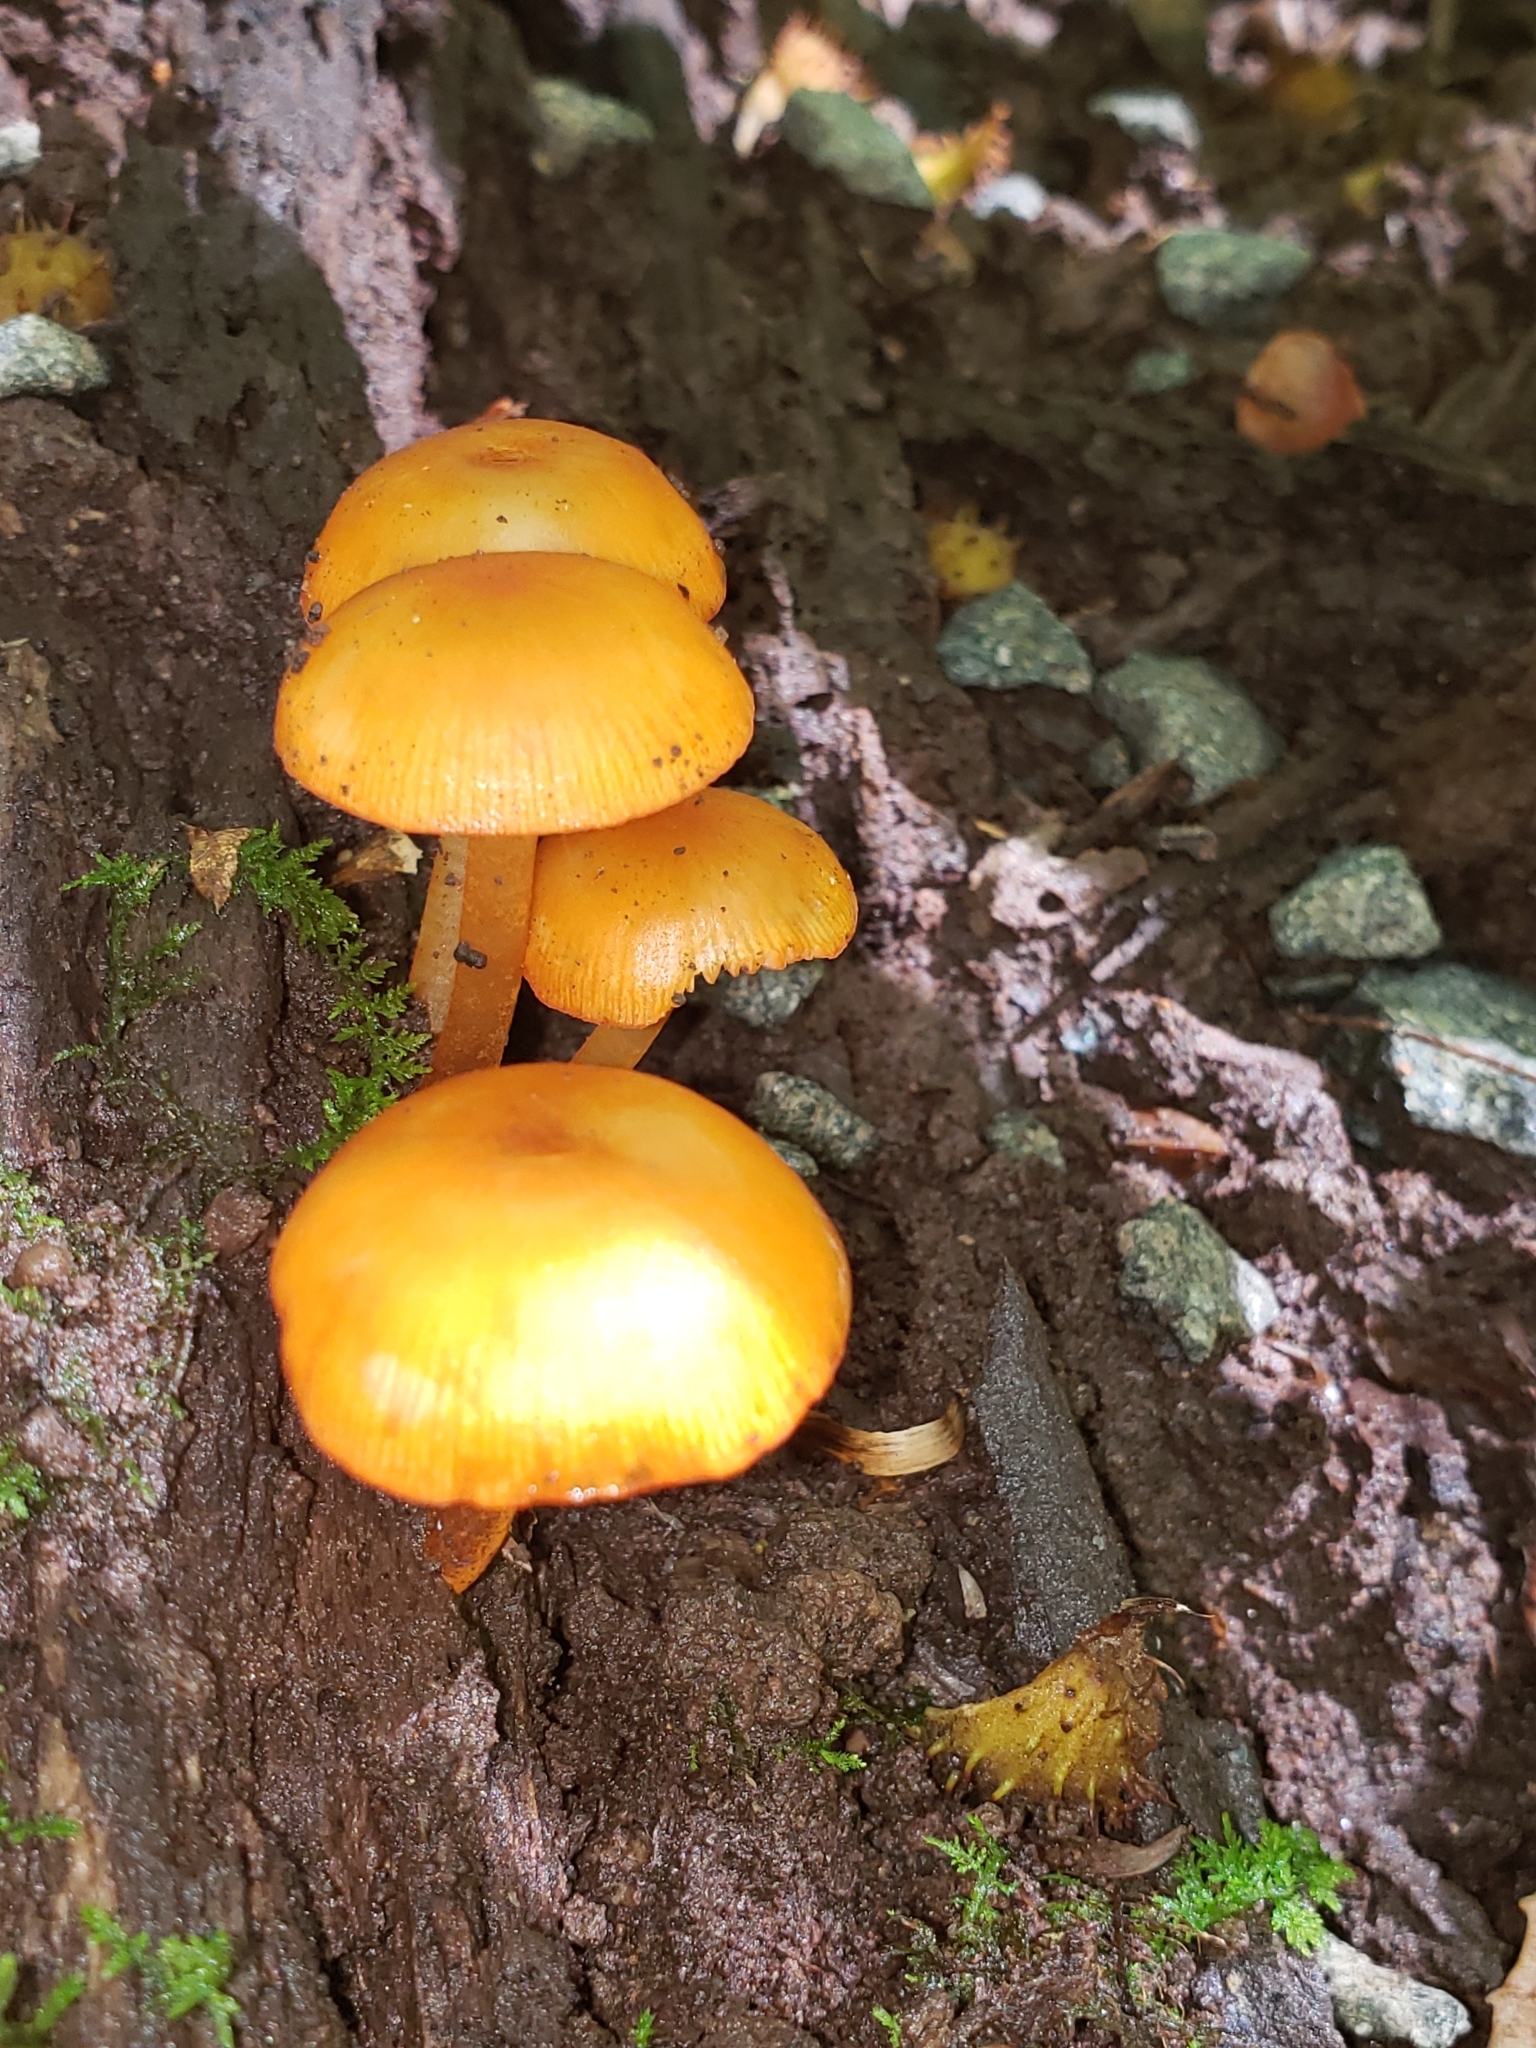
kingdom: Fungi
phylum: Basidiomycota
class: Agaricomycetes
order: Agaricales
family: Mycenaceae
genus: Mycena
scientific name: Mycena leaiana
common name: Orange mycena
